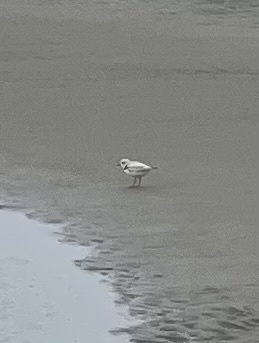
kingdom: Animalia
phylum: Chordata
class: Aves
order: Charadriiformes
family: Charadriidae
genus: Charadrius
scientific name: Charadrius melodus
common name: Piping plover
